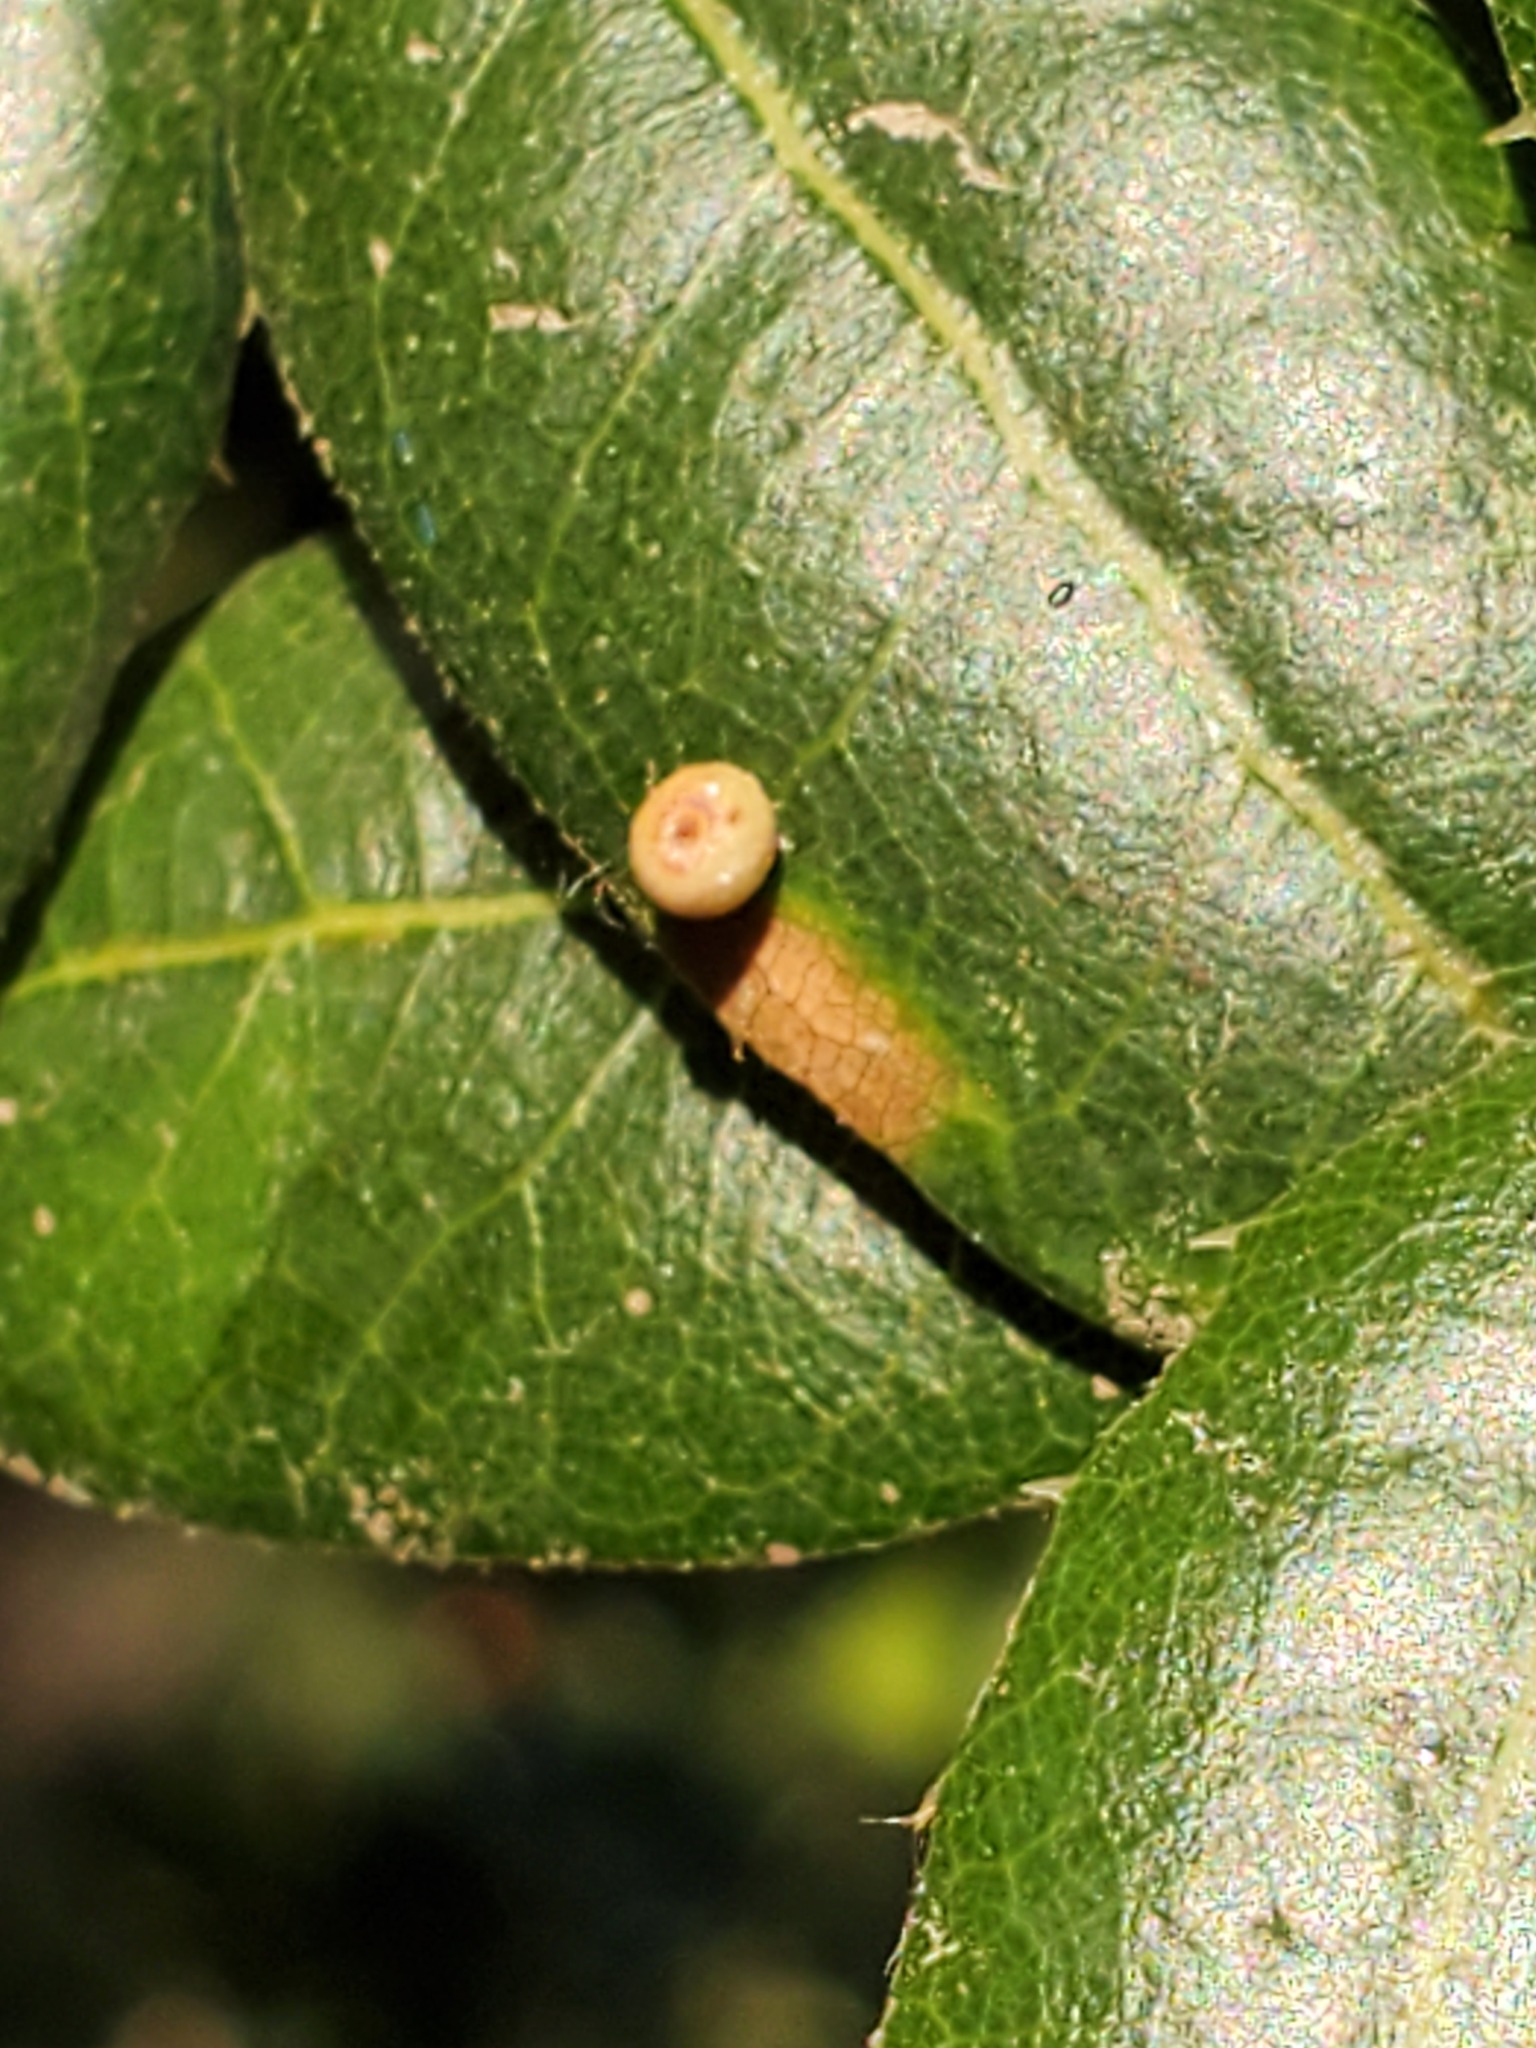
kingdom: Animalia
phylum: Arthropoda
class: Insecta
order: Hymenoptera
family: Cynipidae
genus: Dryocosmus
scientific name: Dryocosmus
